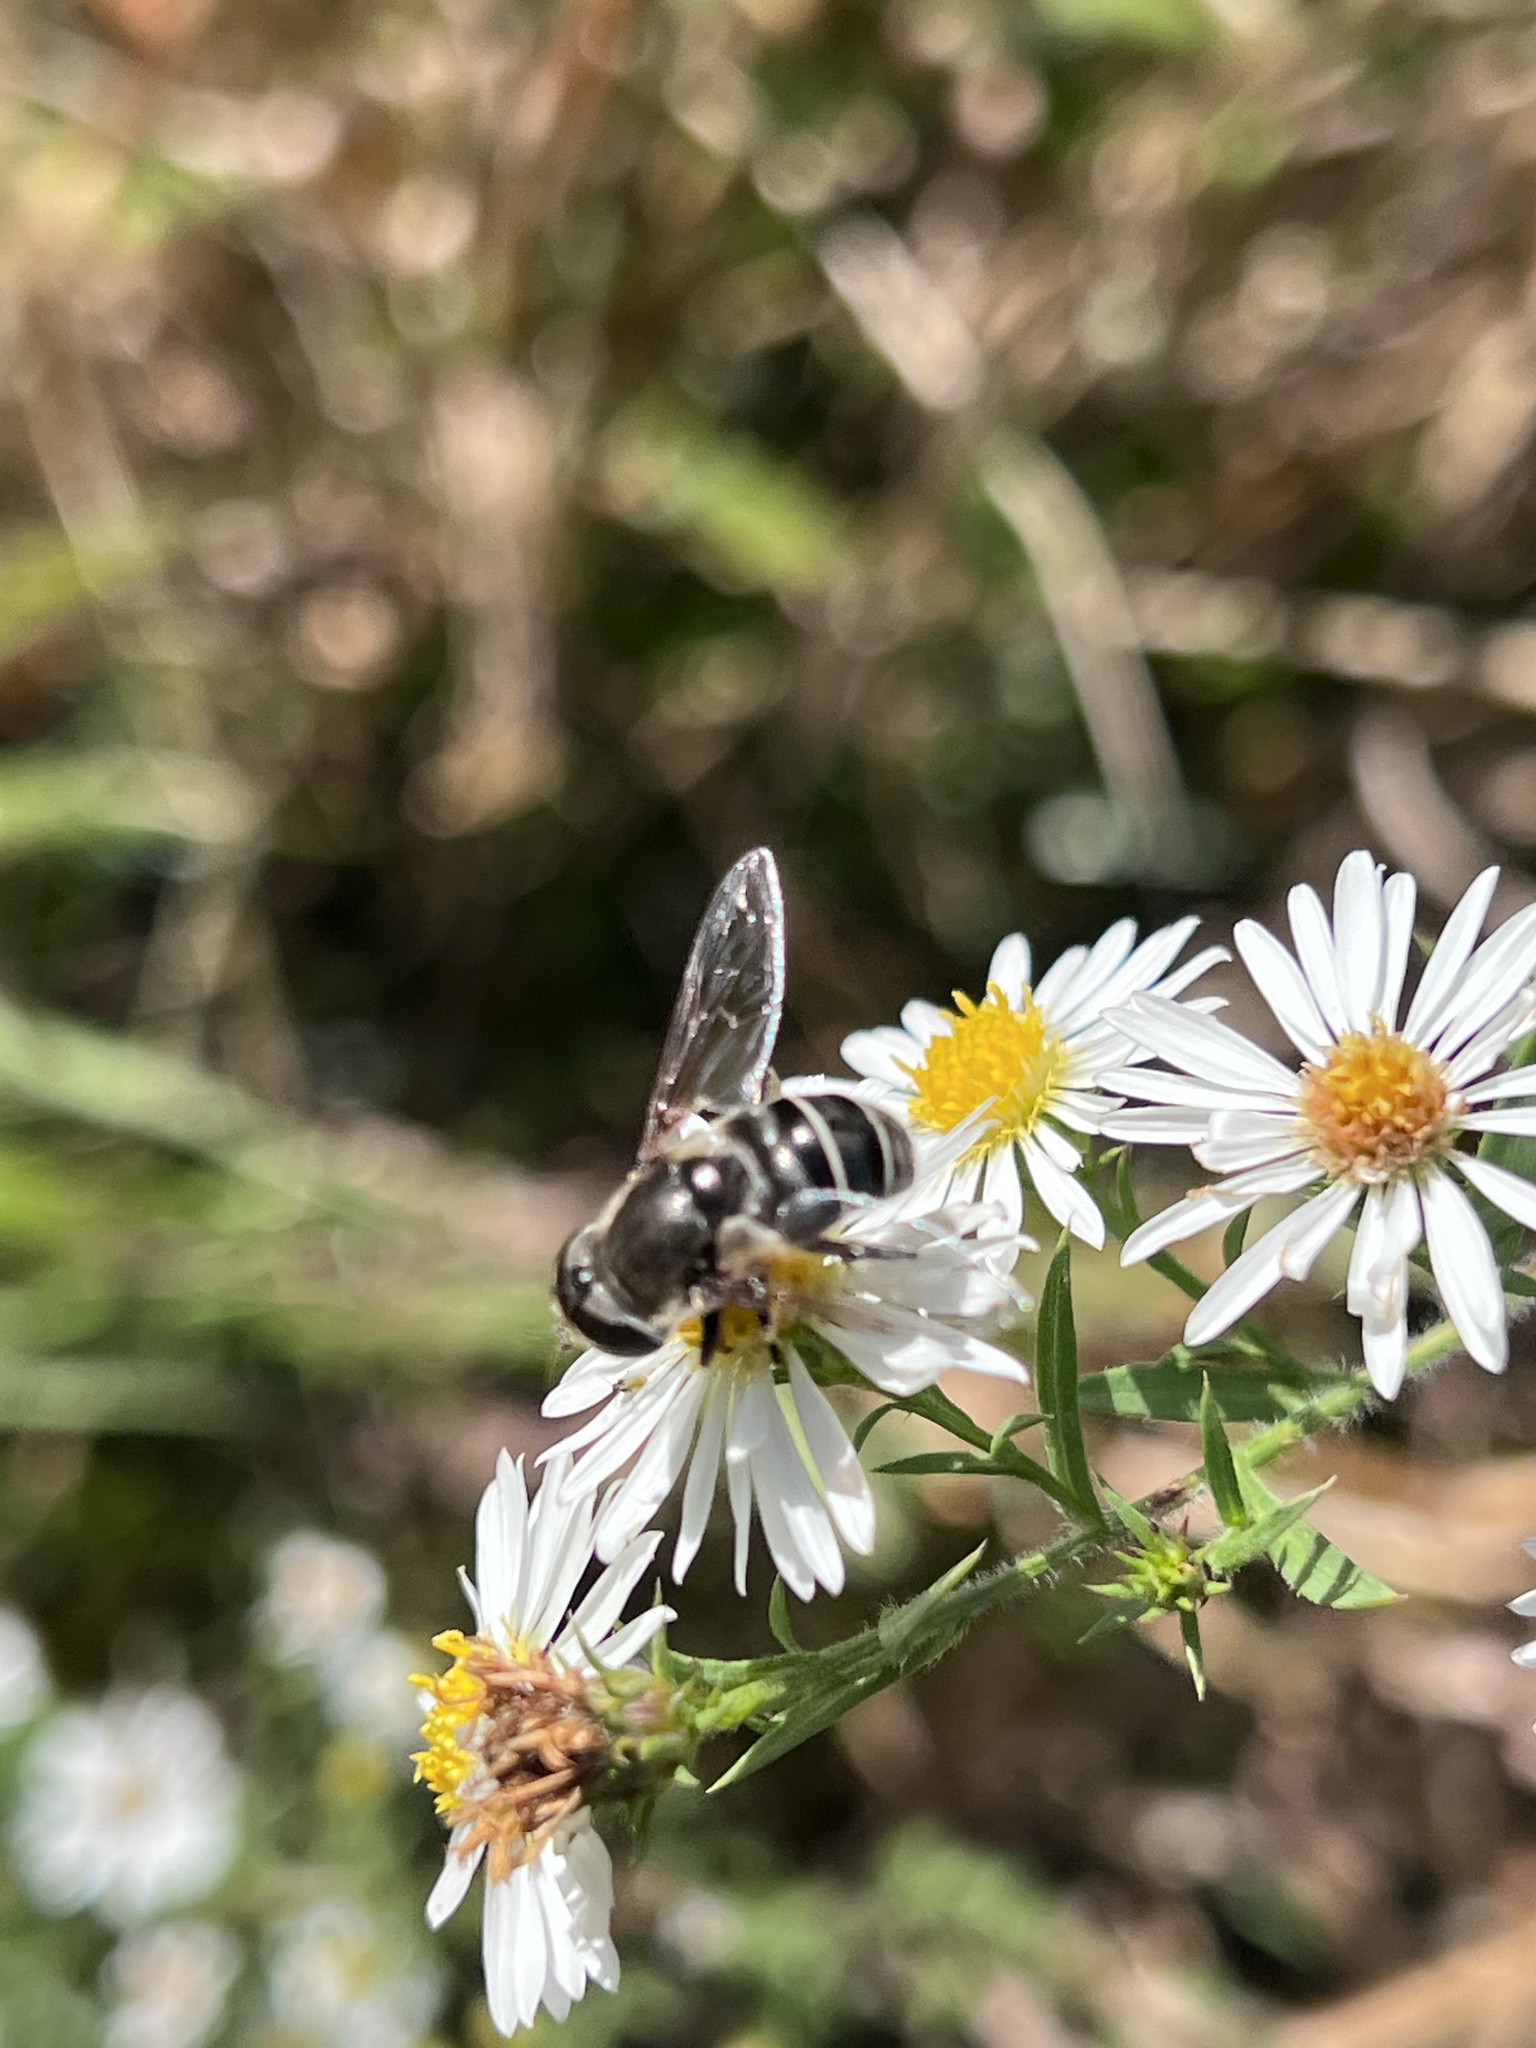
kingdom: Animalia
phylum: Arthropoda
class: Insecta
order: Diptera
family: Syrphidae
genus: Eristalis
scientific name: Eristalis dimidiata
